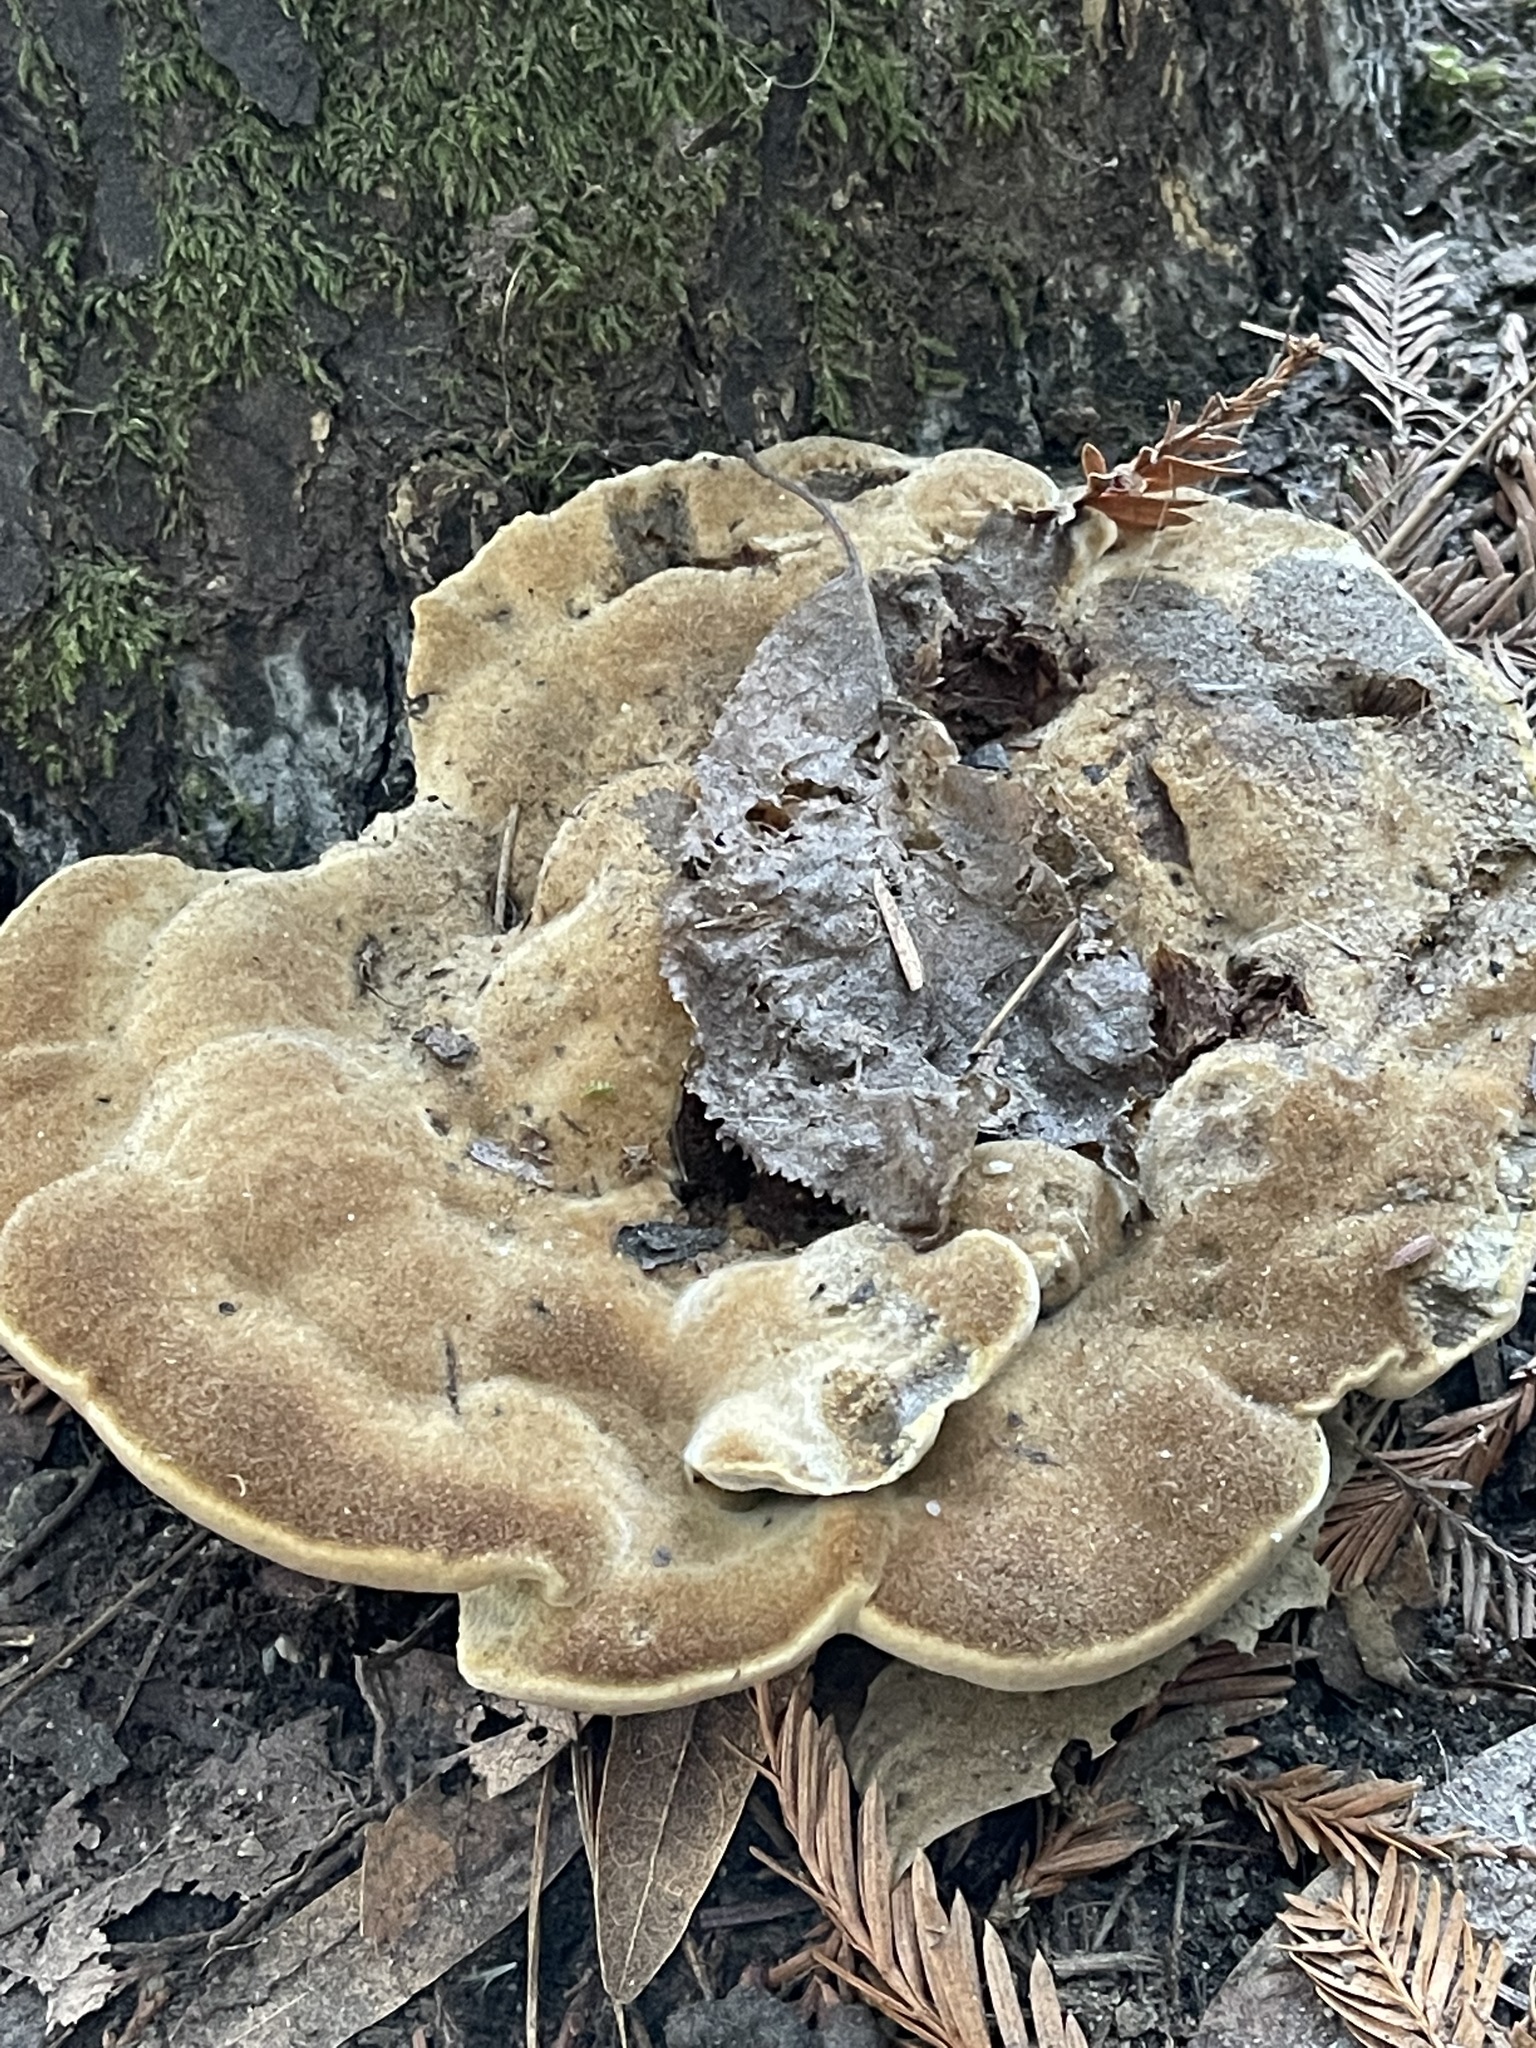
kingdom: Fungi
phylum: Basidiomycota
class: Agaricomycetes
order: Polyporales
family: Laetiporaceae
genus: Phaeolus
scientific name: Phaeolus schweinitzii
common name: Dyer's mazegill
